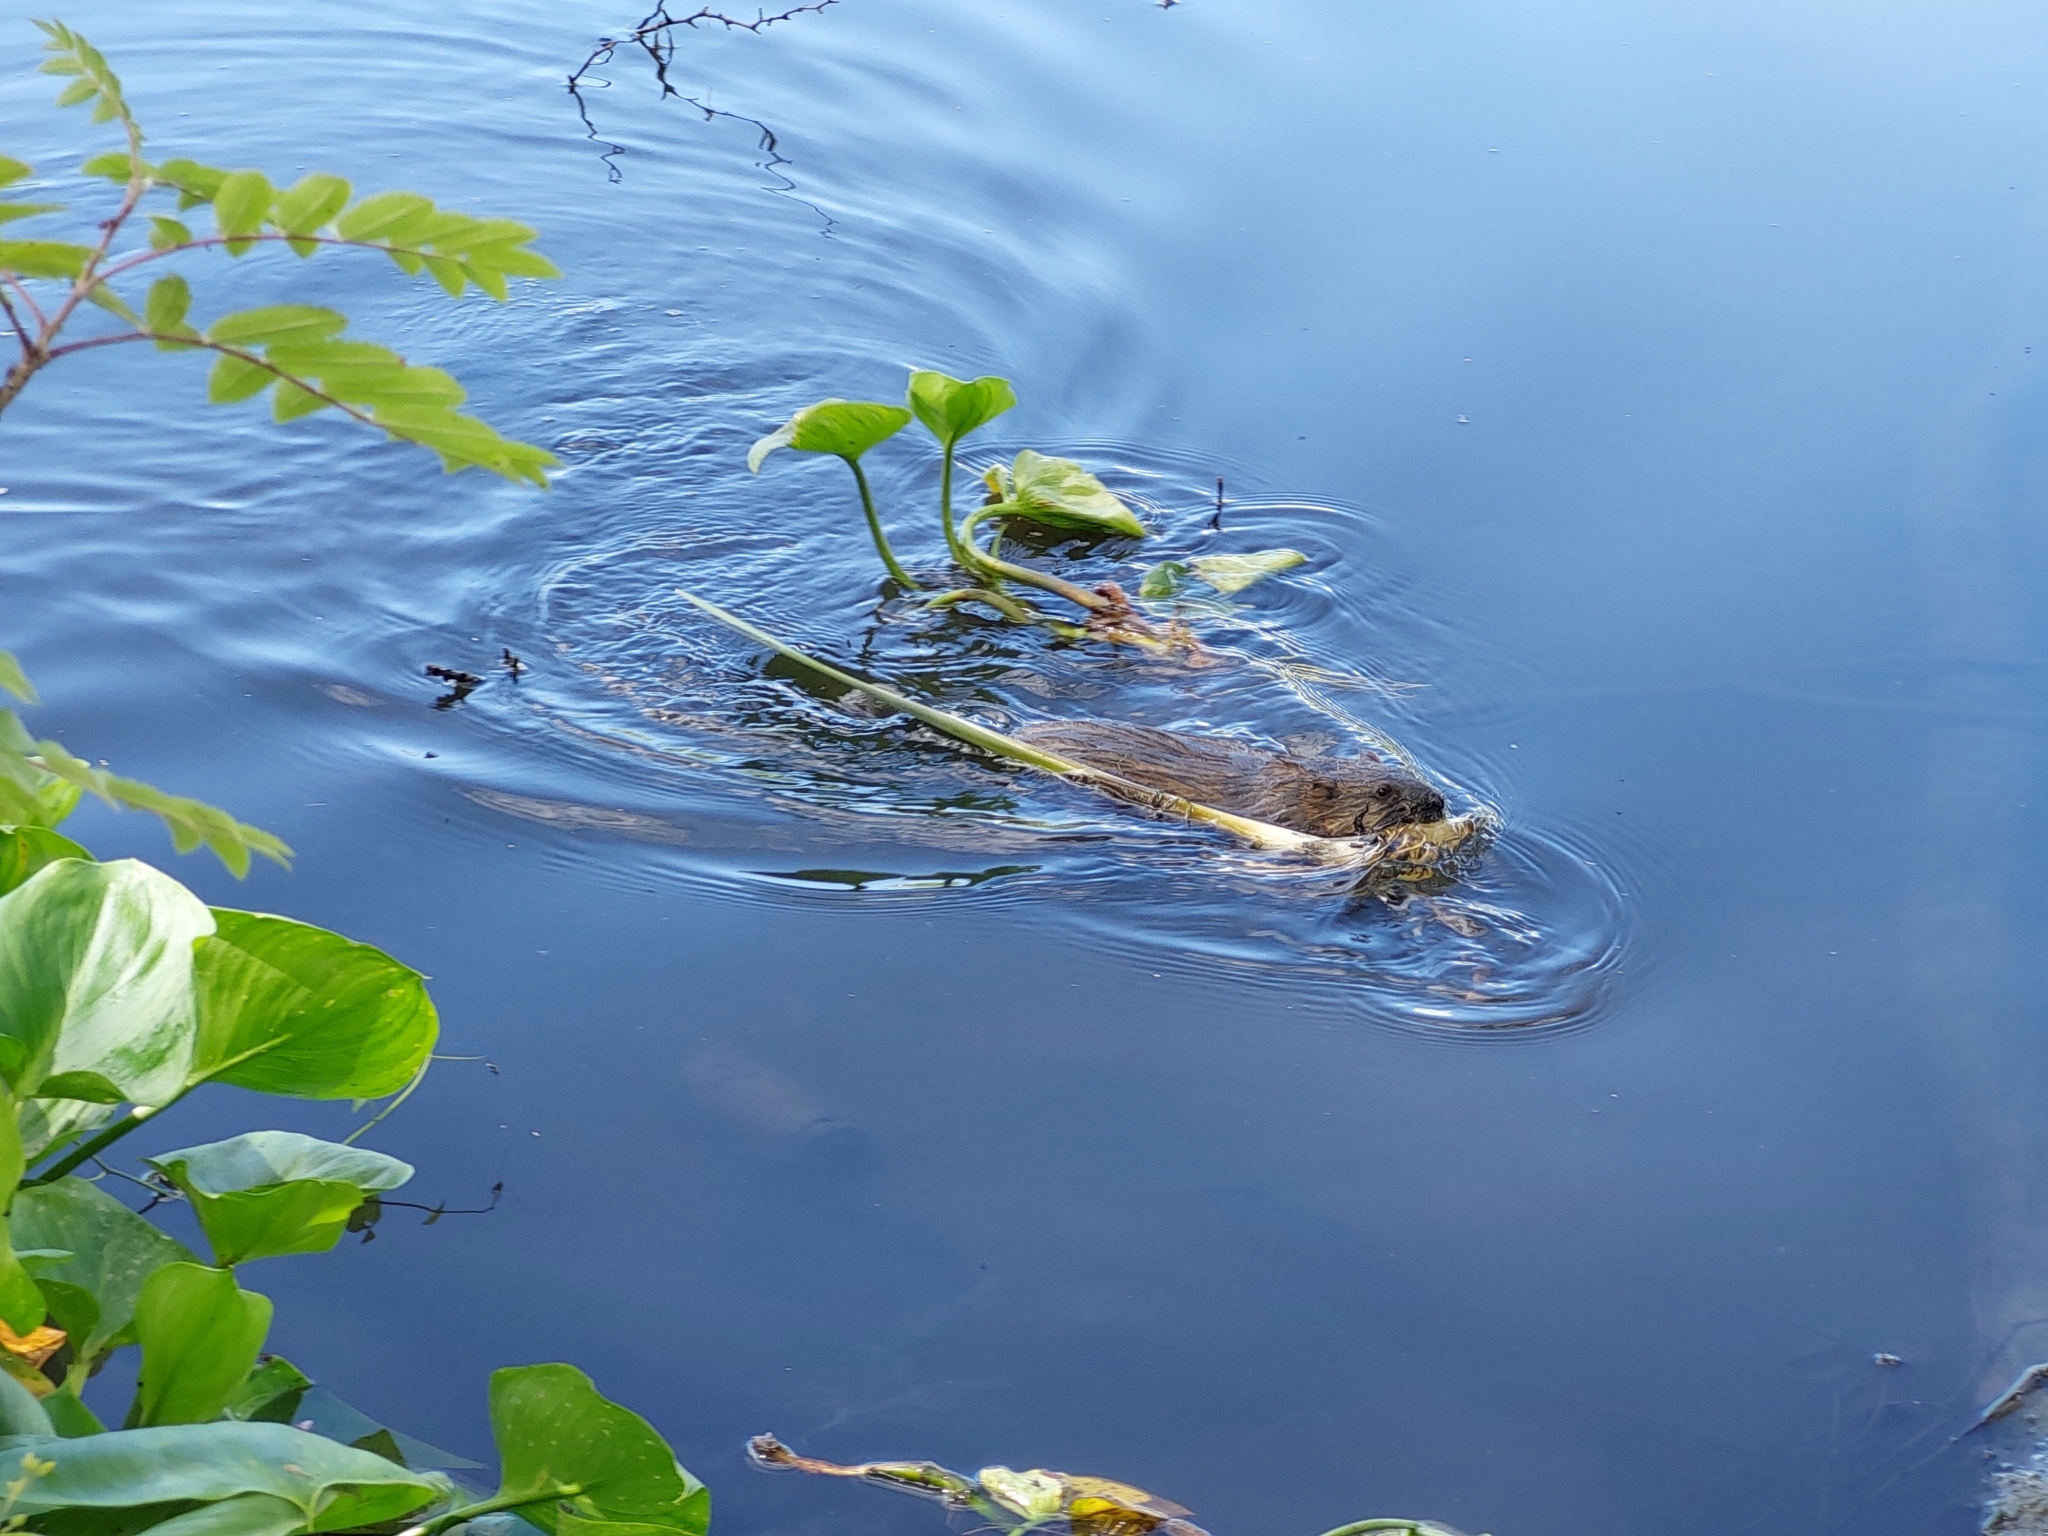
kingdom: Animalia
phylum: Chordata
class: Mammalia
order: Rodentia
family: Cricetidae
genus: Ondatra
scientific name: Ondatra zibethicus
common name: Muskrat
